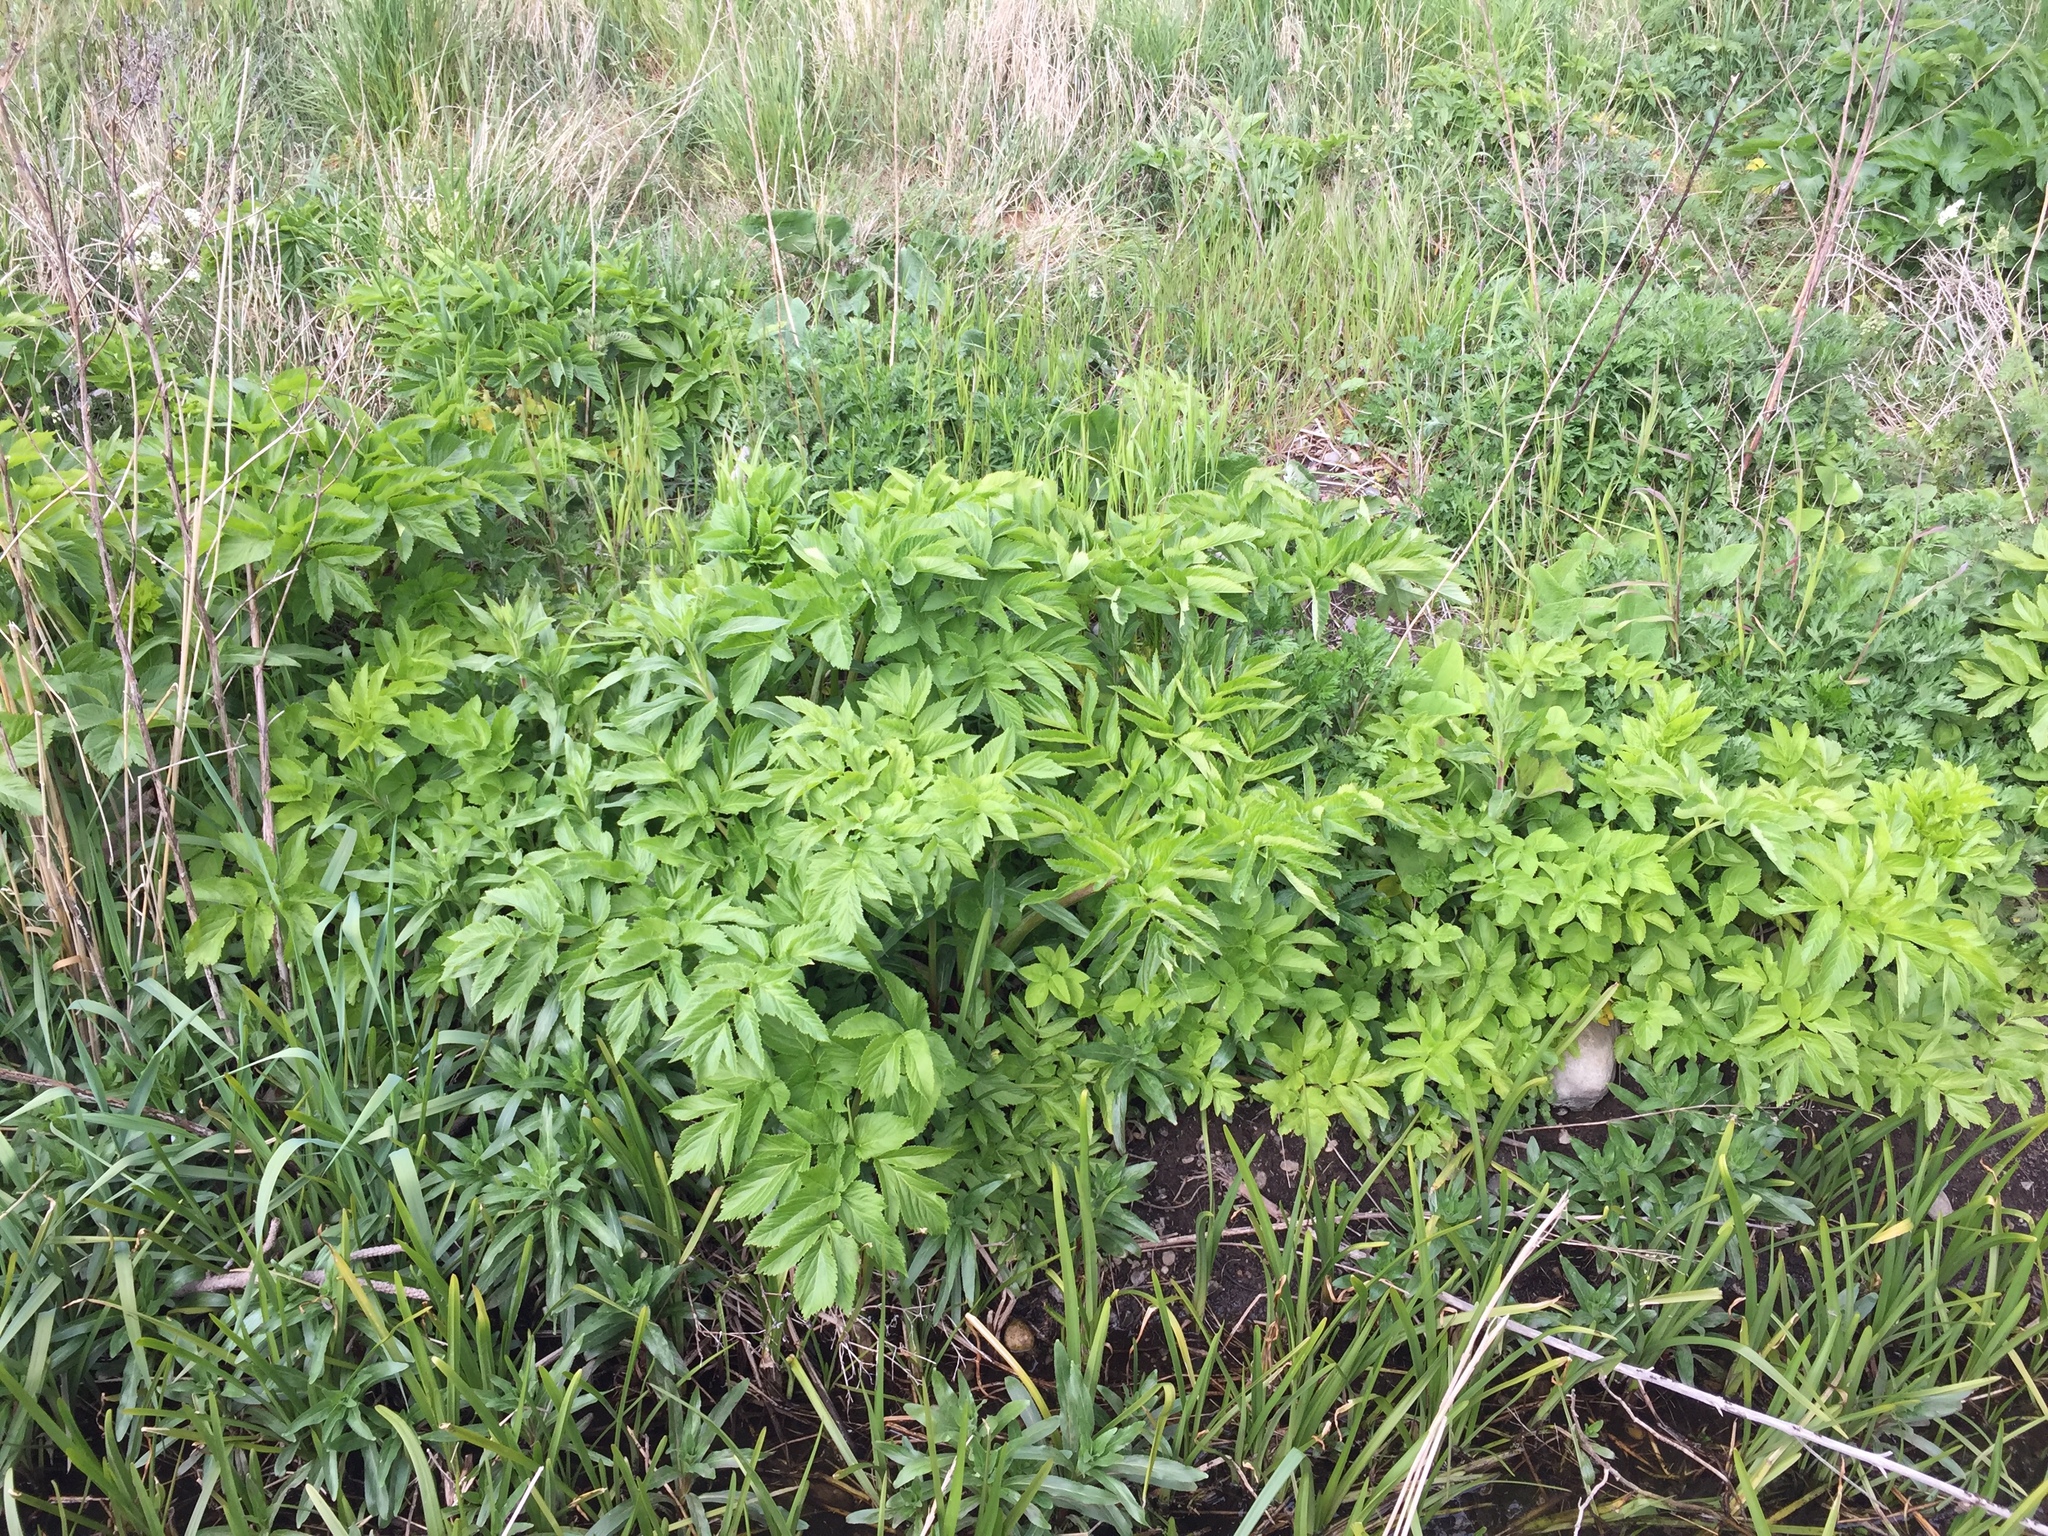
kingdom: Plantae
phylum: Tracheophyta
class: Magnoliopsida
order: Apiales
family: Apiaceae
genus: Angelica
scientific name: Angelica archangelica
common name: Garden angelica
